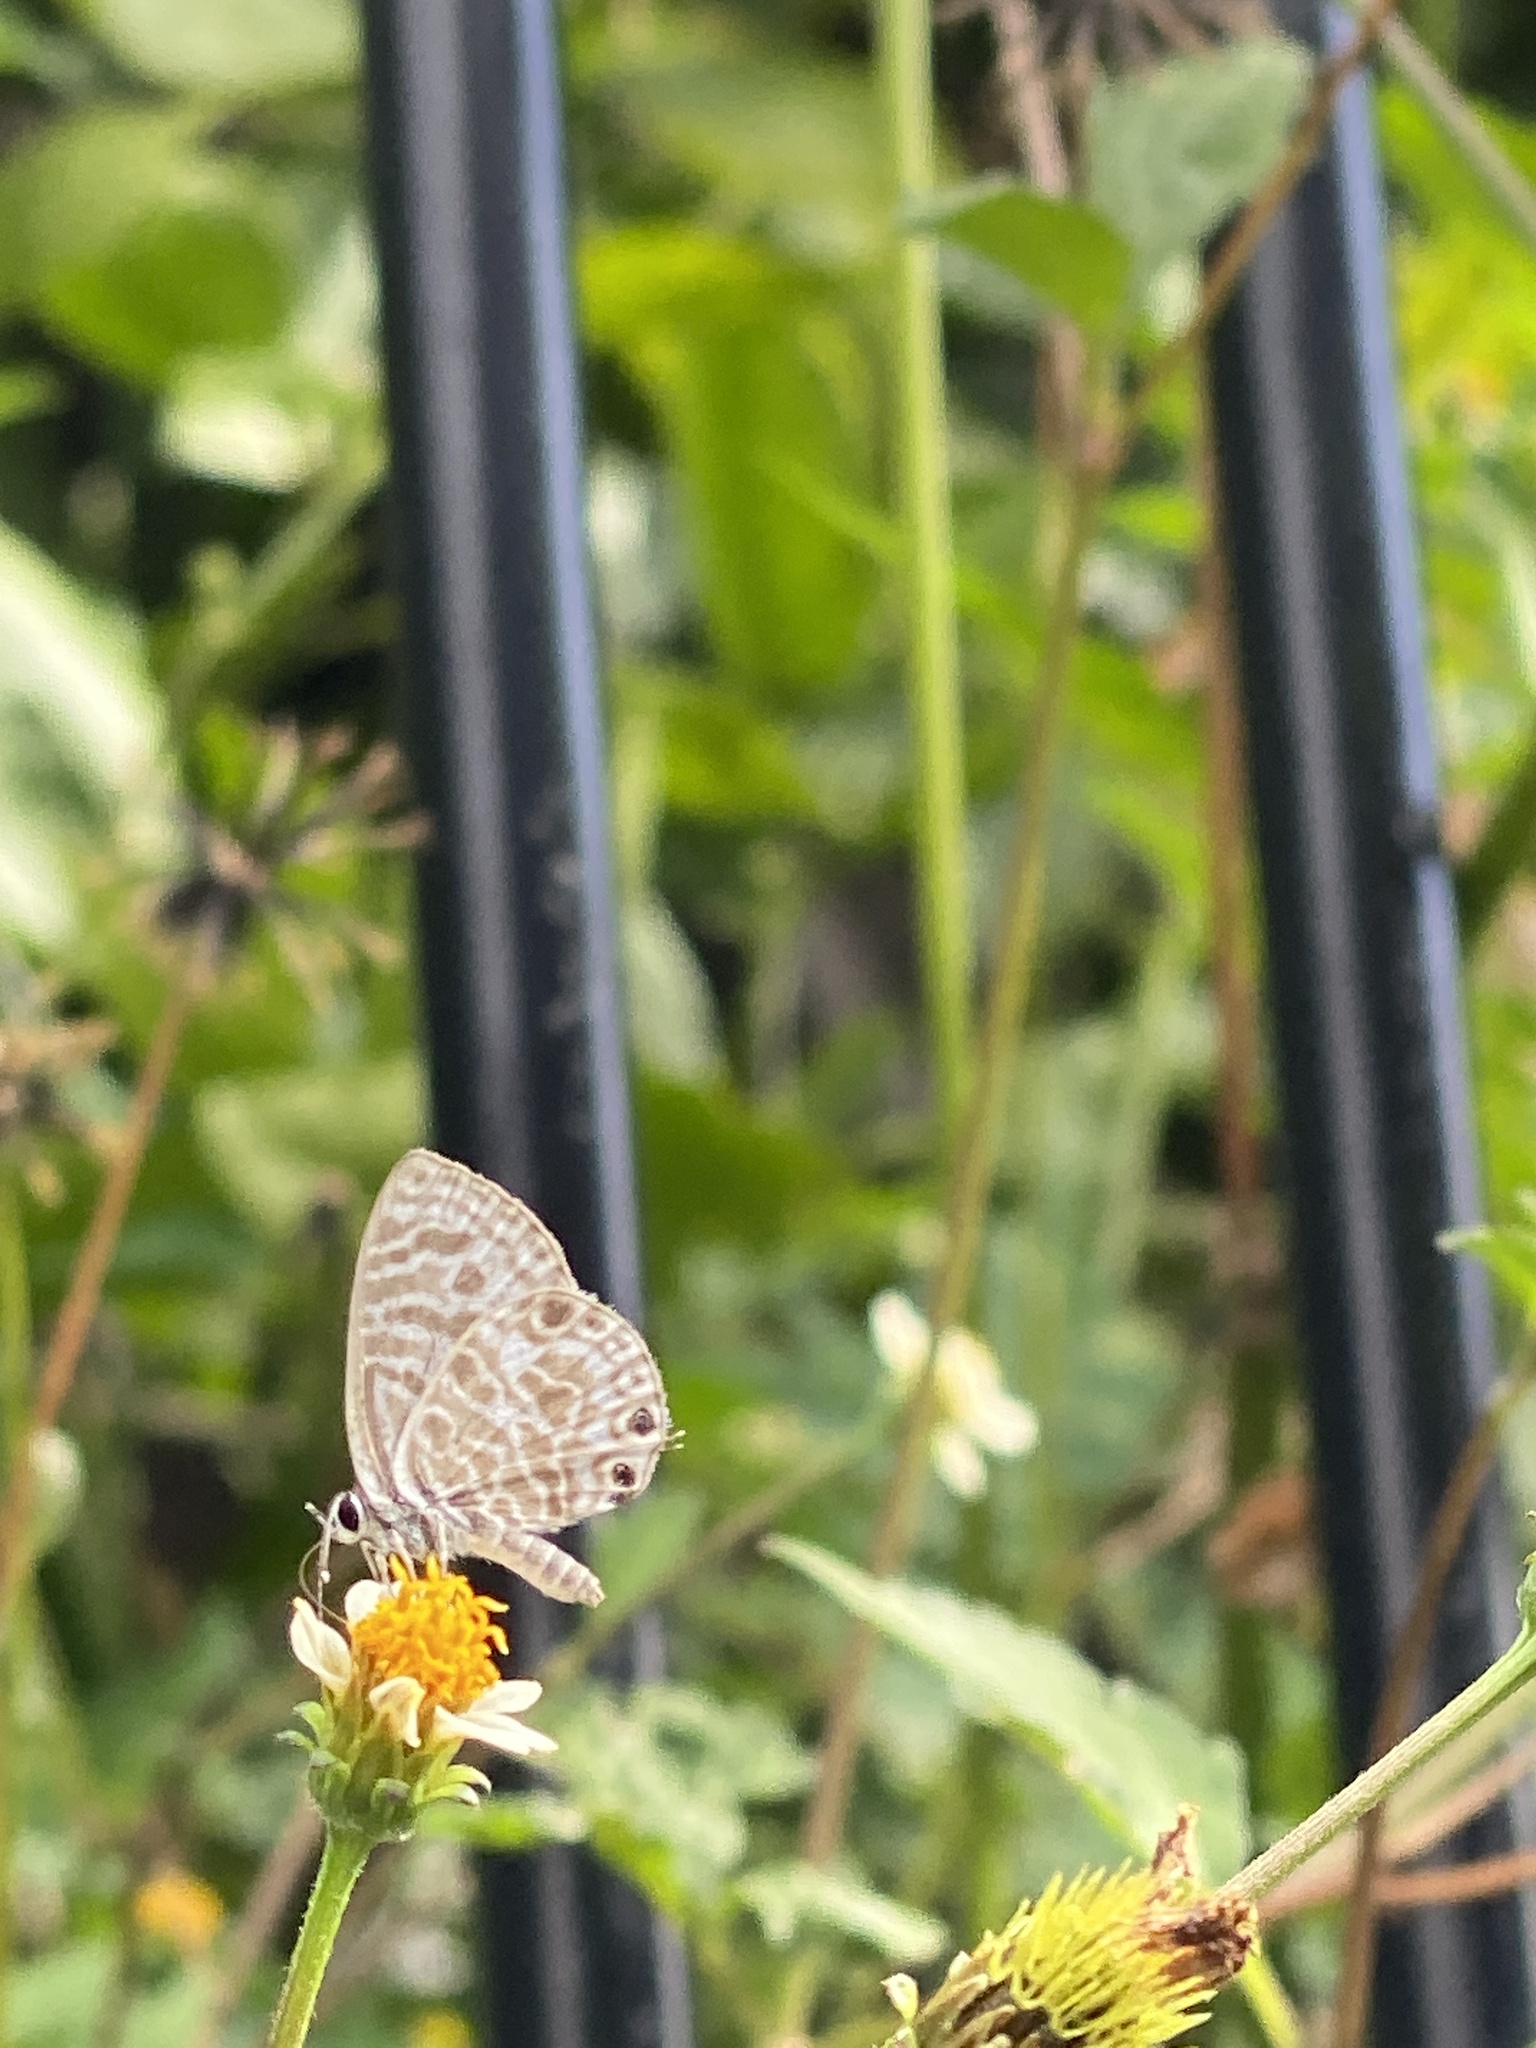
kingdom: Animalia
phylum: Arthropoda
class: Insecta
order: Lepidoptera
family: Lycaenidae
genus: Leptotes
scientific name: Leptotes plinius
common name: Zebra blue
